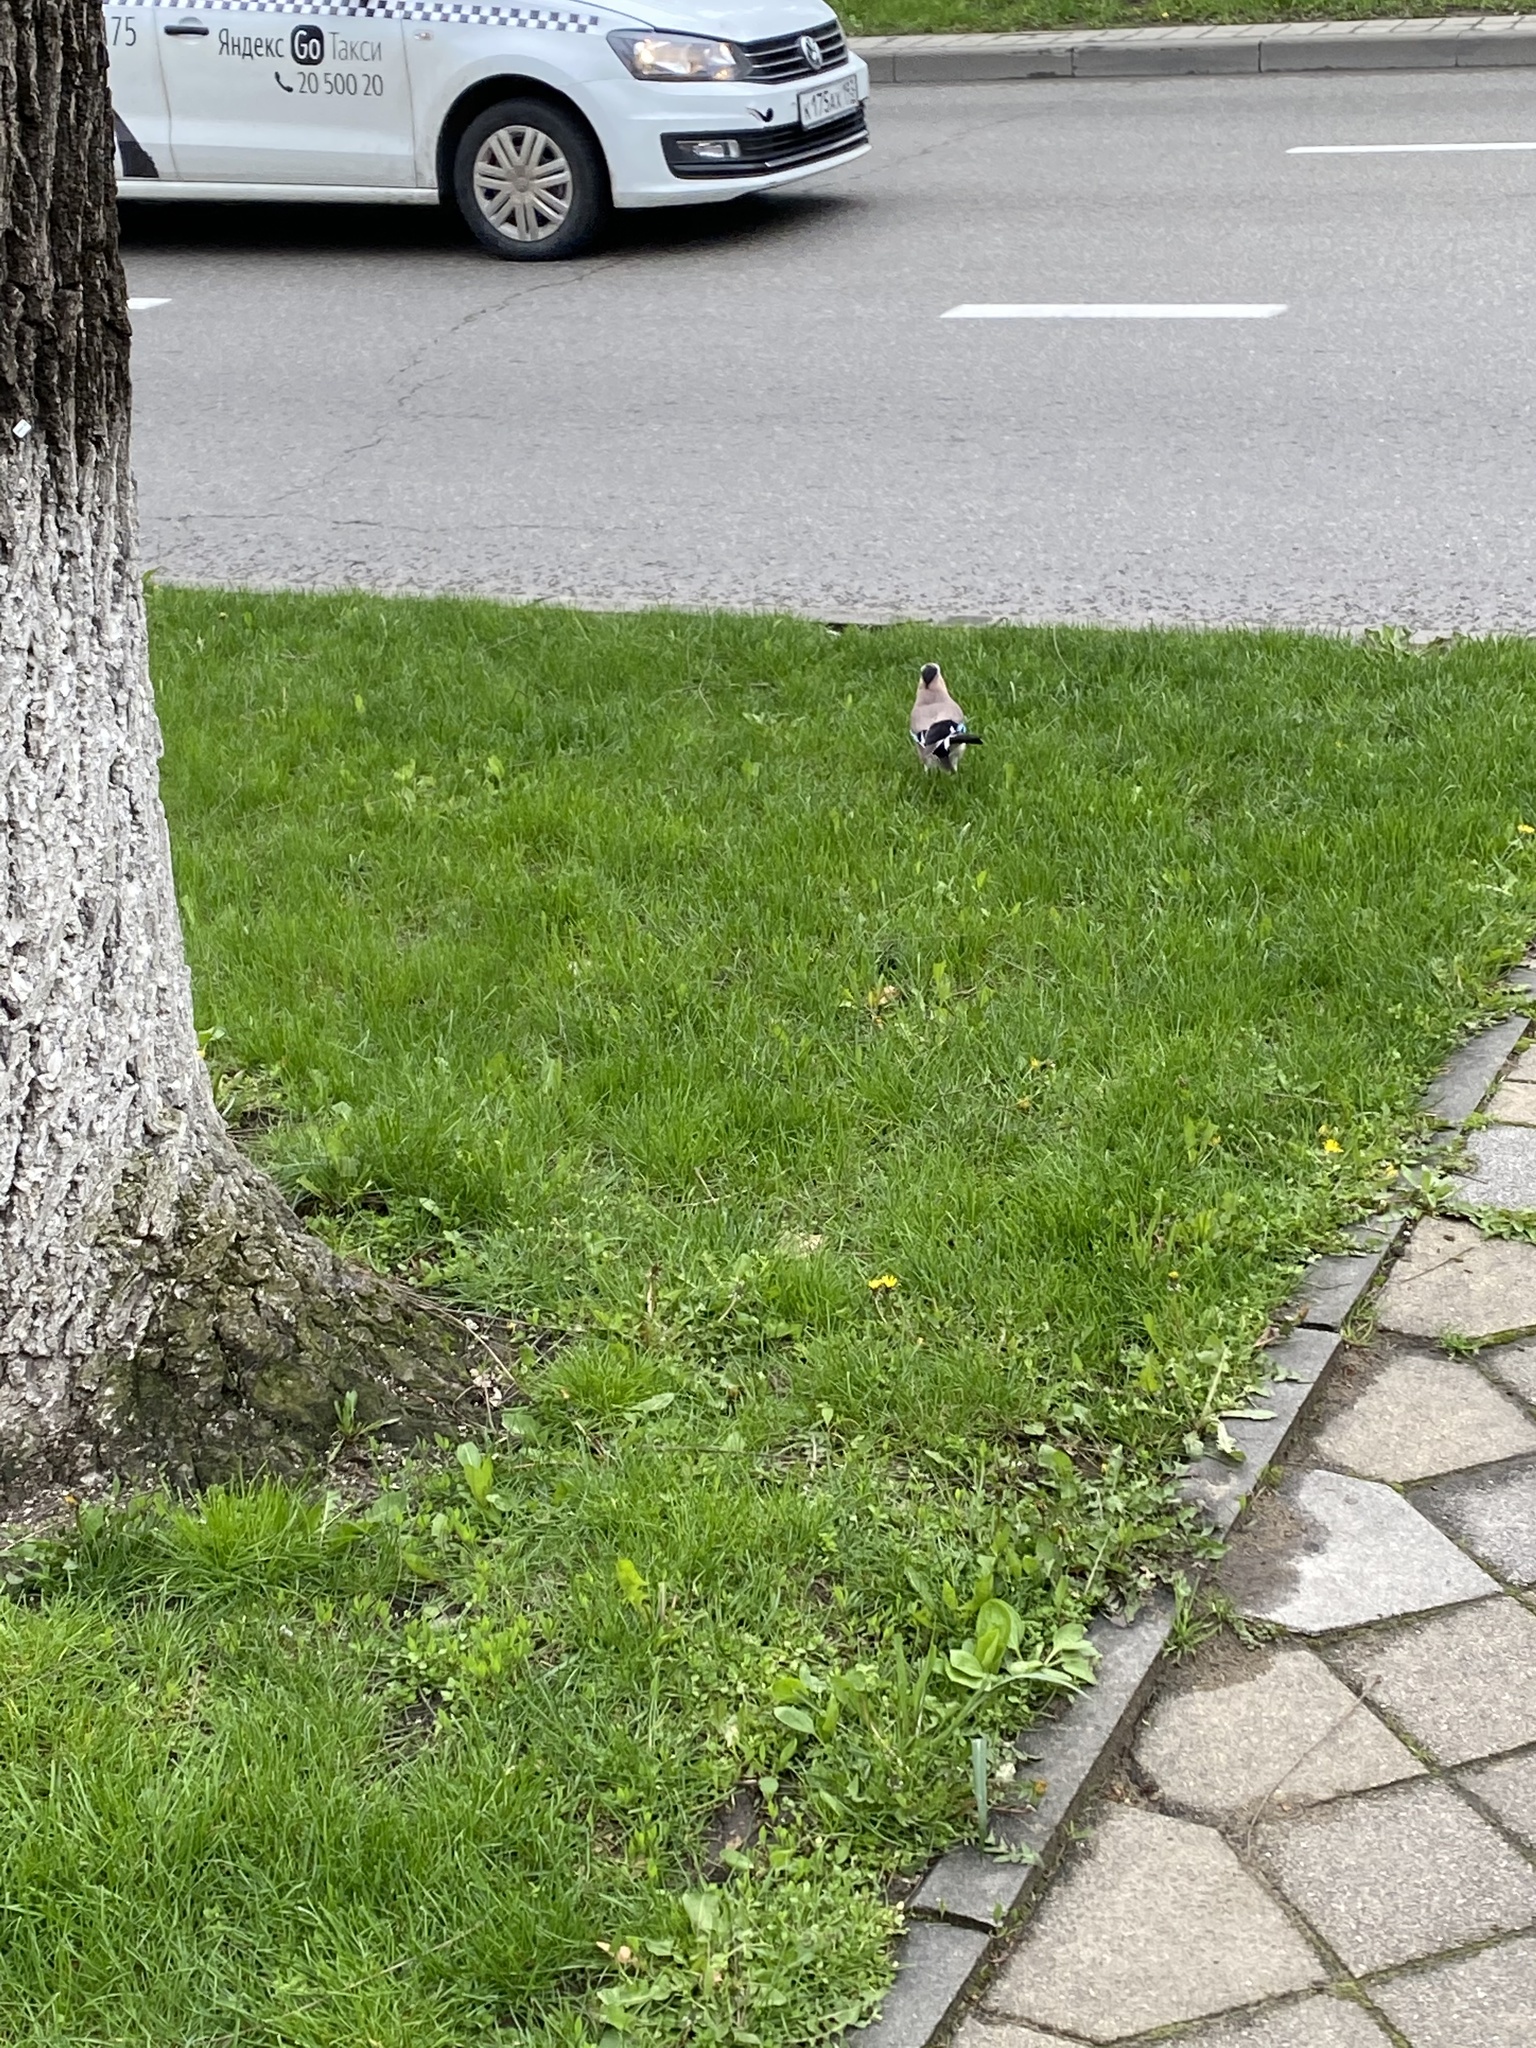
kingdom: Animalia
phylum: Chordata
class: Aves
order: Passeriformes
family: Corvidae
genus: Garrulus
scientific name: Garrulus glandarius
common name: Eurasian jay
